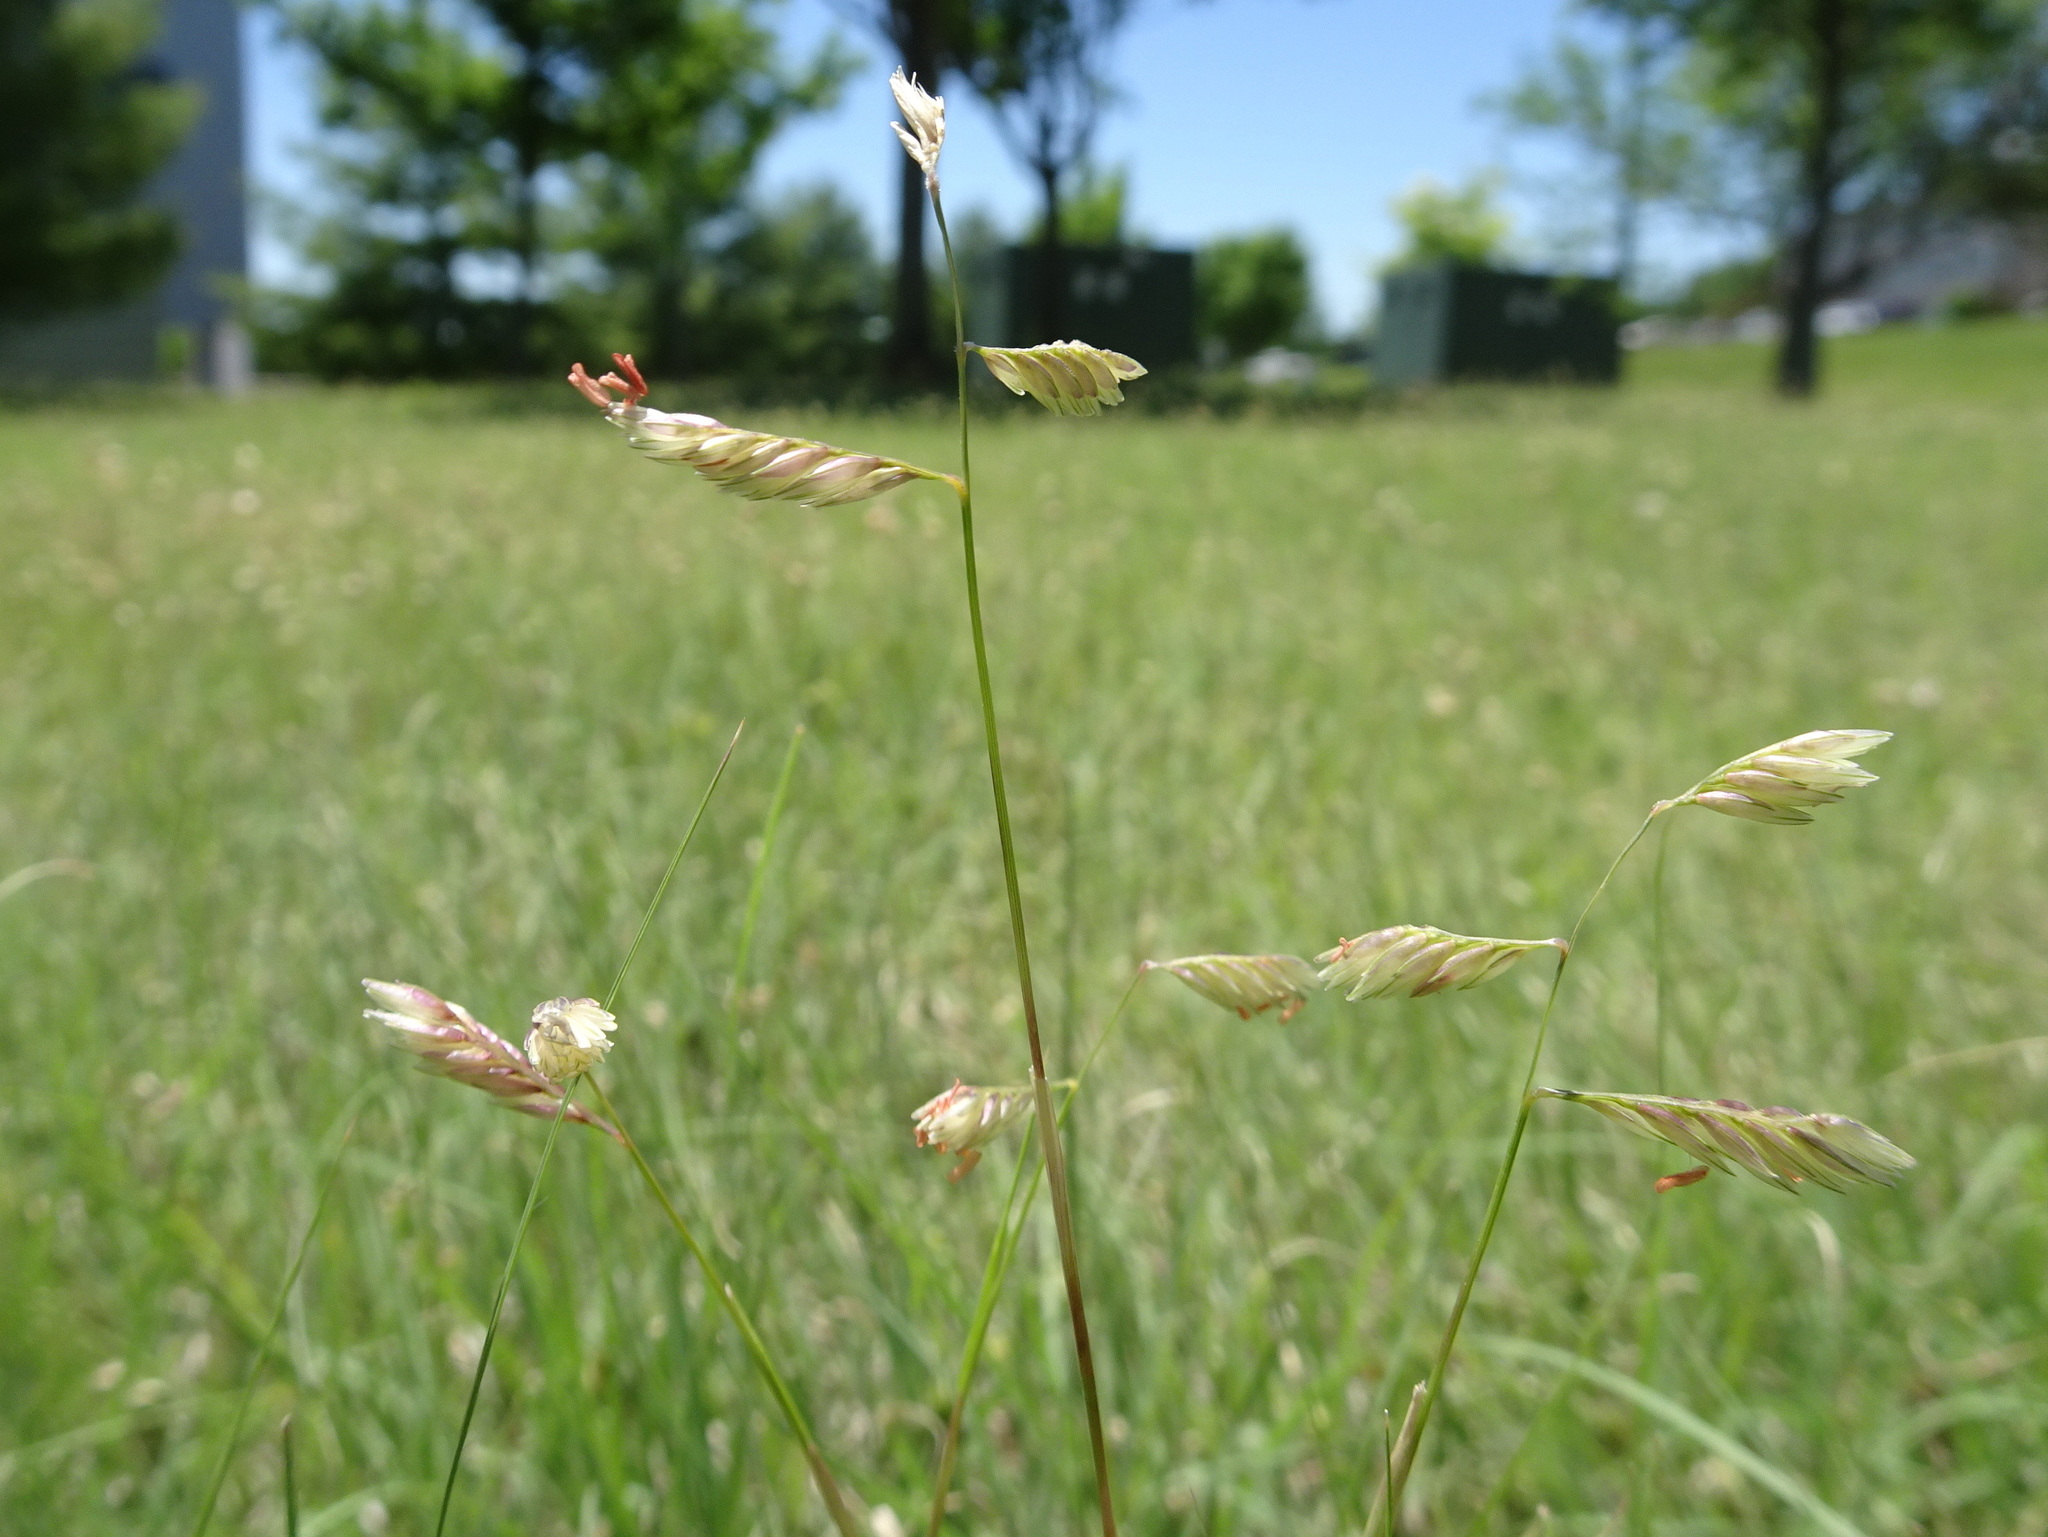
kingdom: Plantae
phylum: Tracheophyta
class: Liliopsida
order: Poales
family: Poaceae
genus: Bouteloua
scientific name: Bouteloua dactyloides
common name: Buffalo grass
